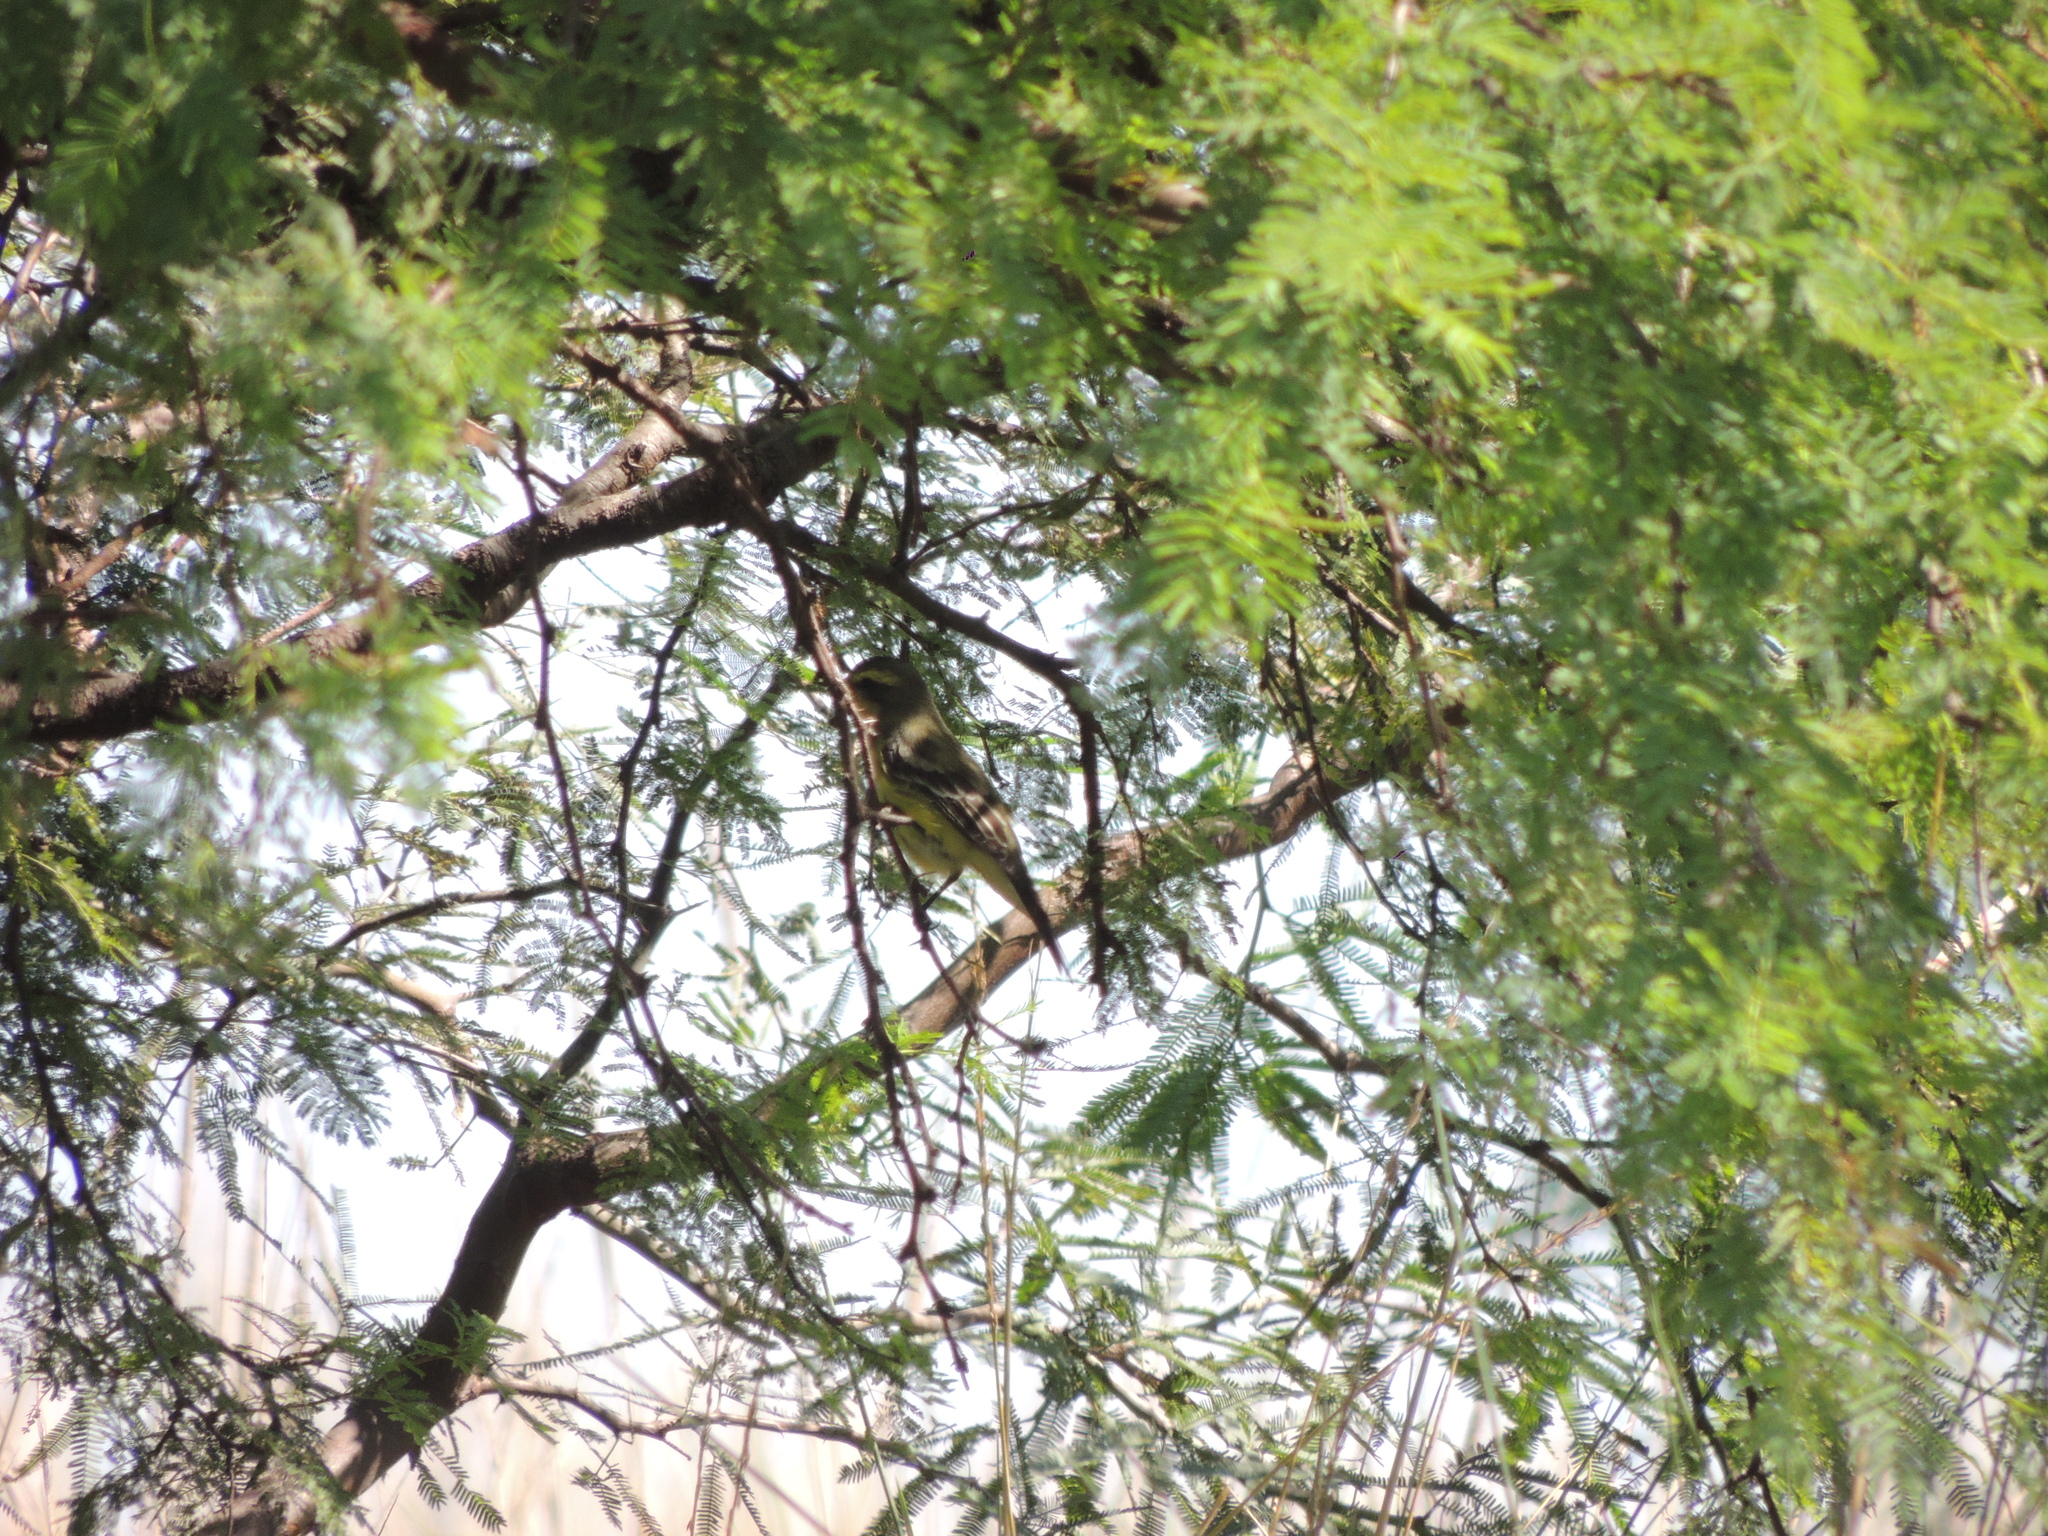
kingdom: Animalia
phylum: Chordata
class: Aves
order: Passeriformes
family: Tyrannidae
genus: Satrapa
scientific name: Satrapa icterophrys
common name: Yellow-browed tyrant
